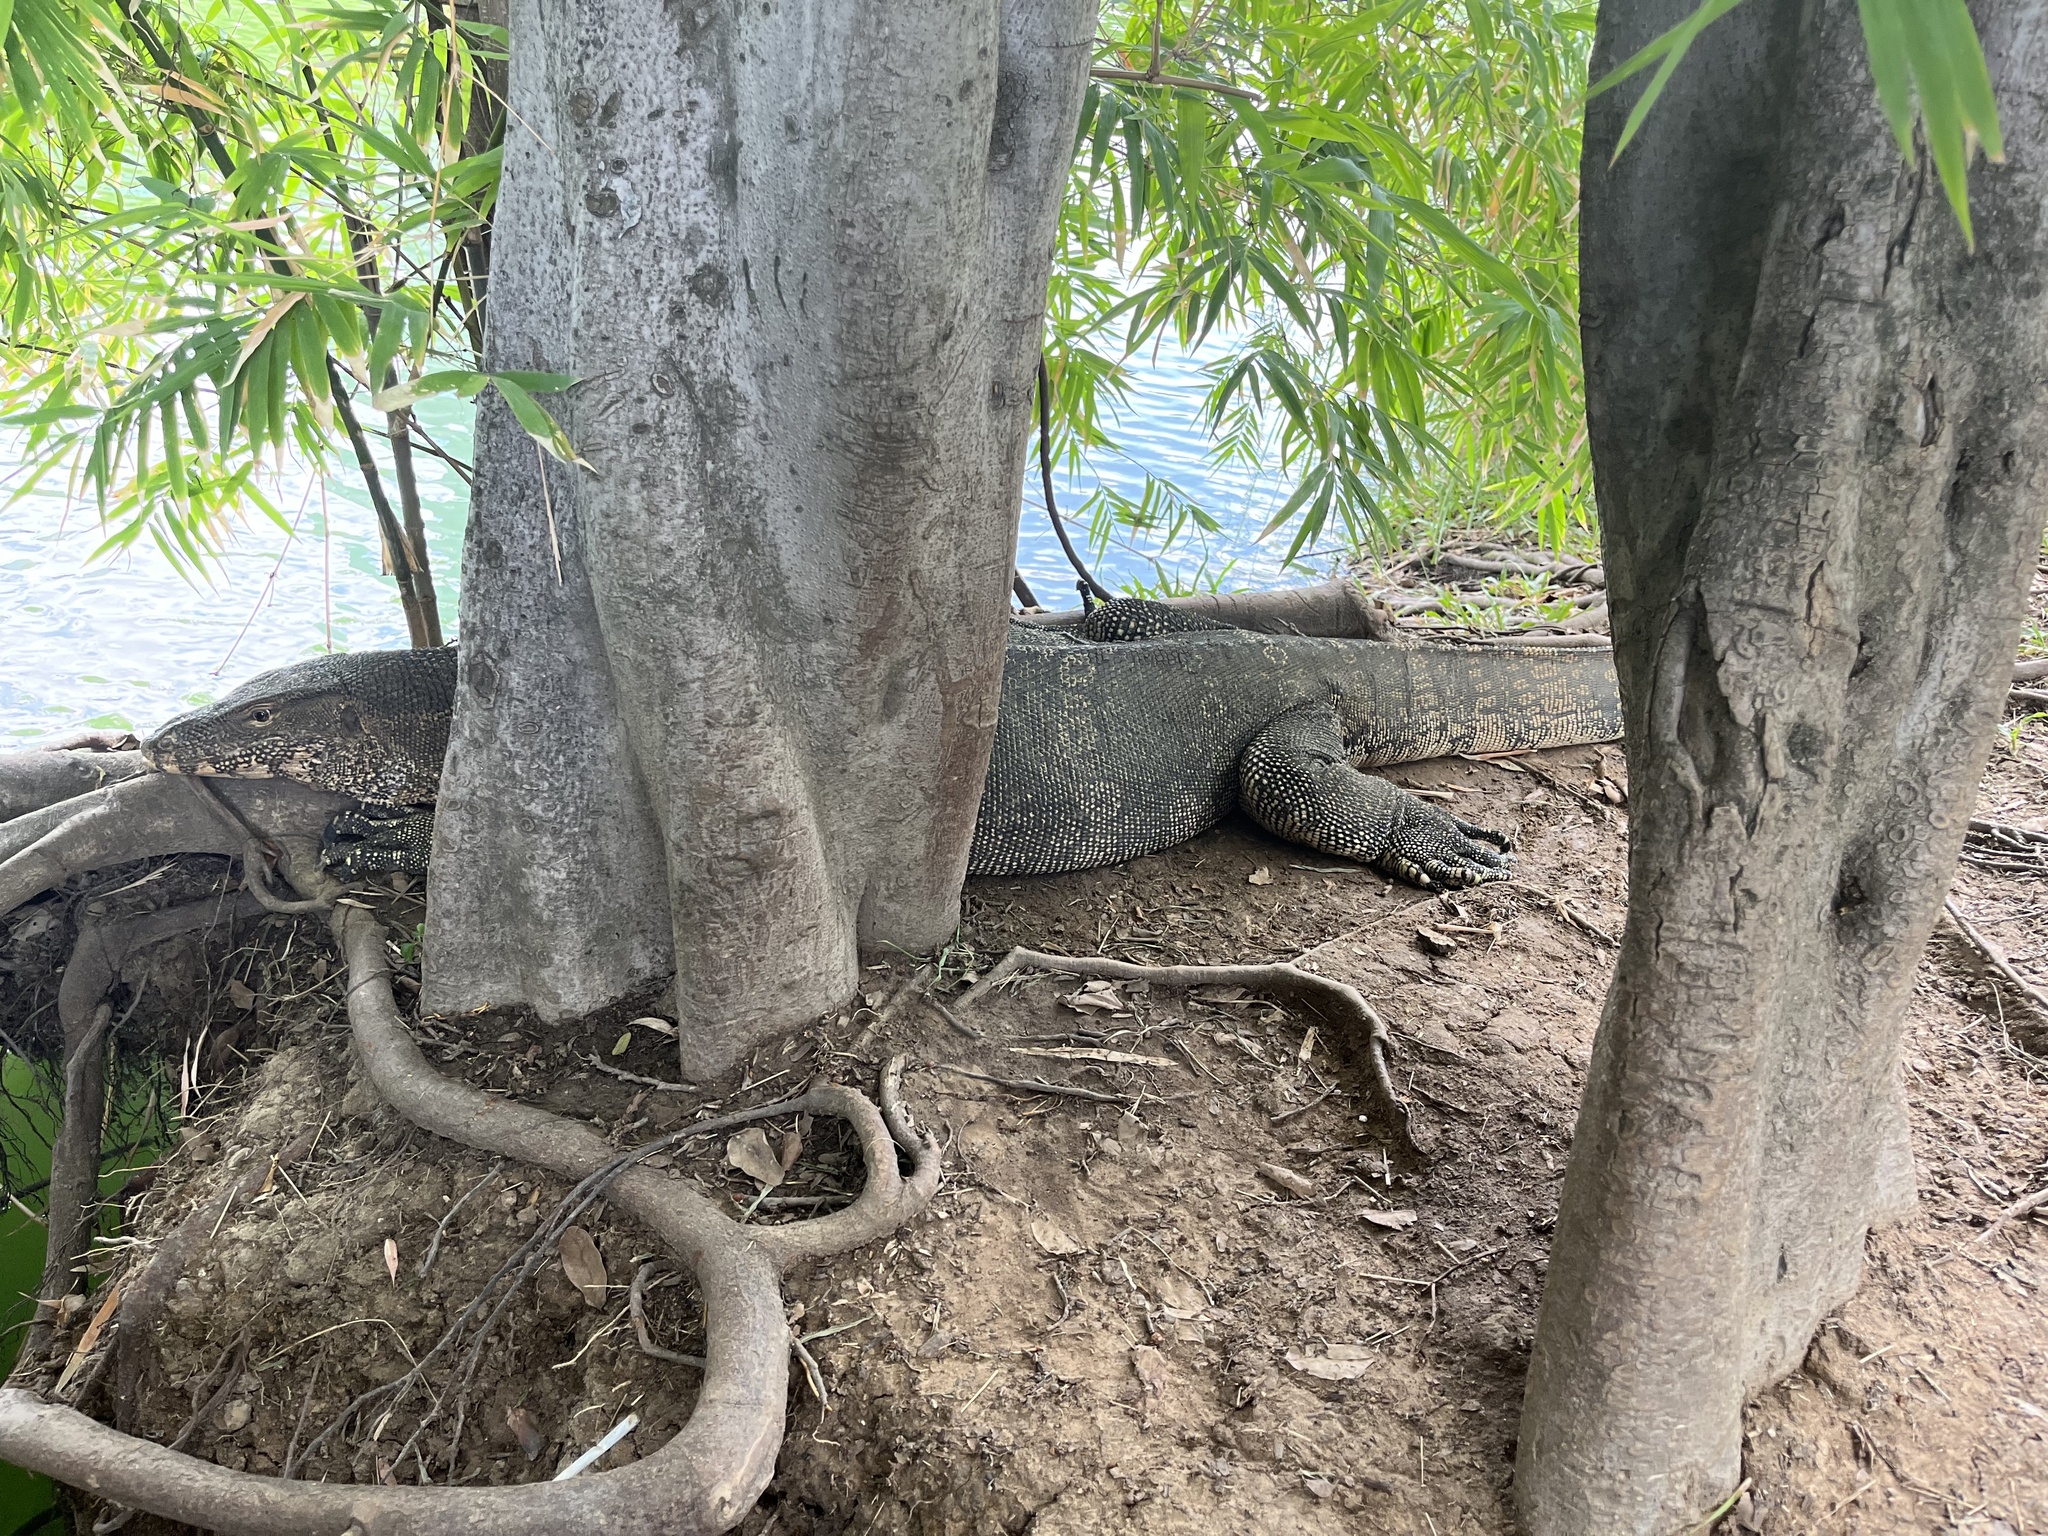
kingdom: Animalia
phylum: Chordata
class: Squamata
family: Varanidae
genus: Varanus
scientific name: Varanus salvator
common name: Common water monitor
